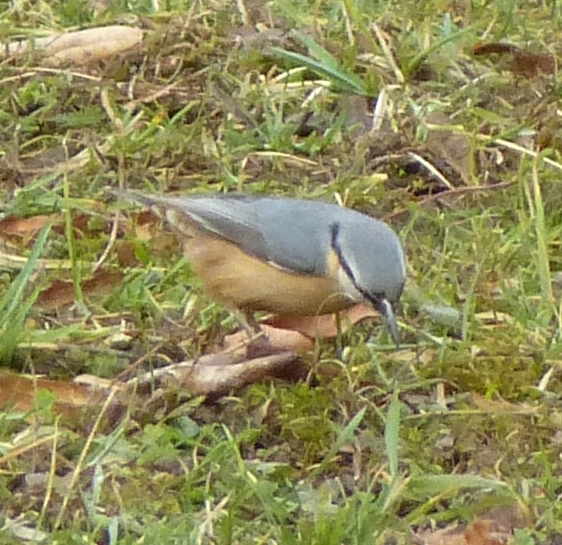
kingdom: Animalia
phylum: Chordata
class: Aves
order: Passeriformes
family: Sittidae
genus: Sitta
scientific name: Sitta europaea
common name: Eurasian nuthatch
